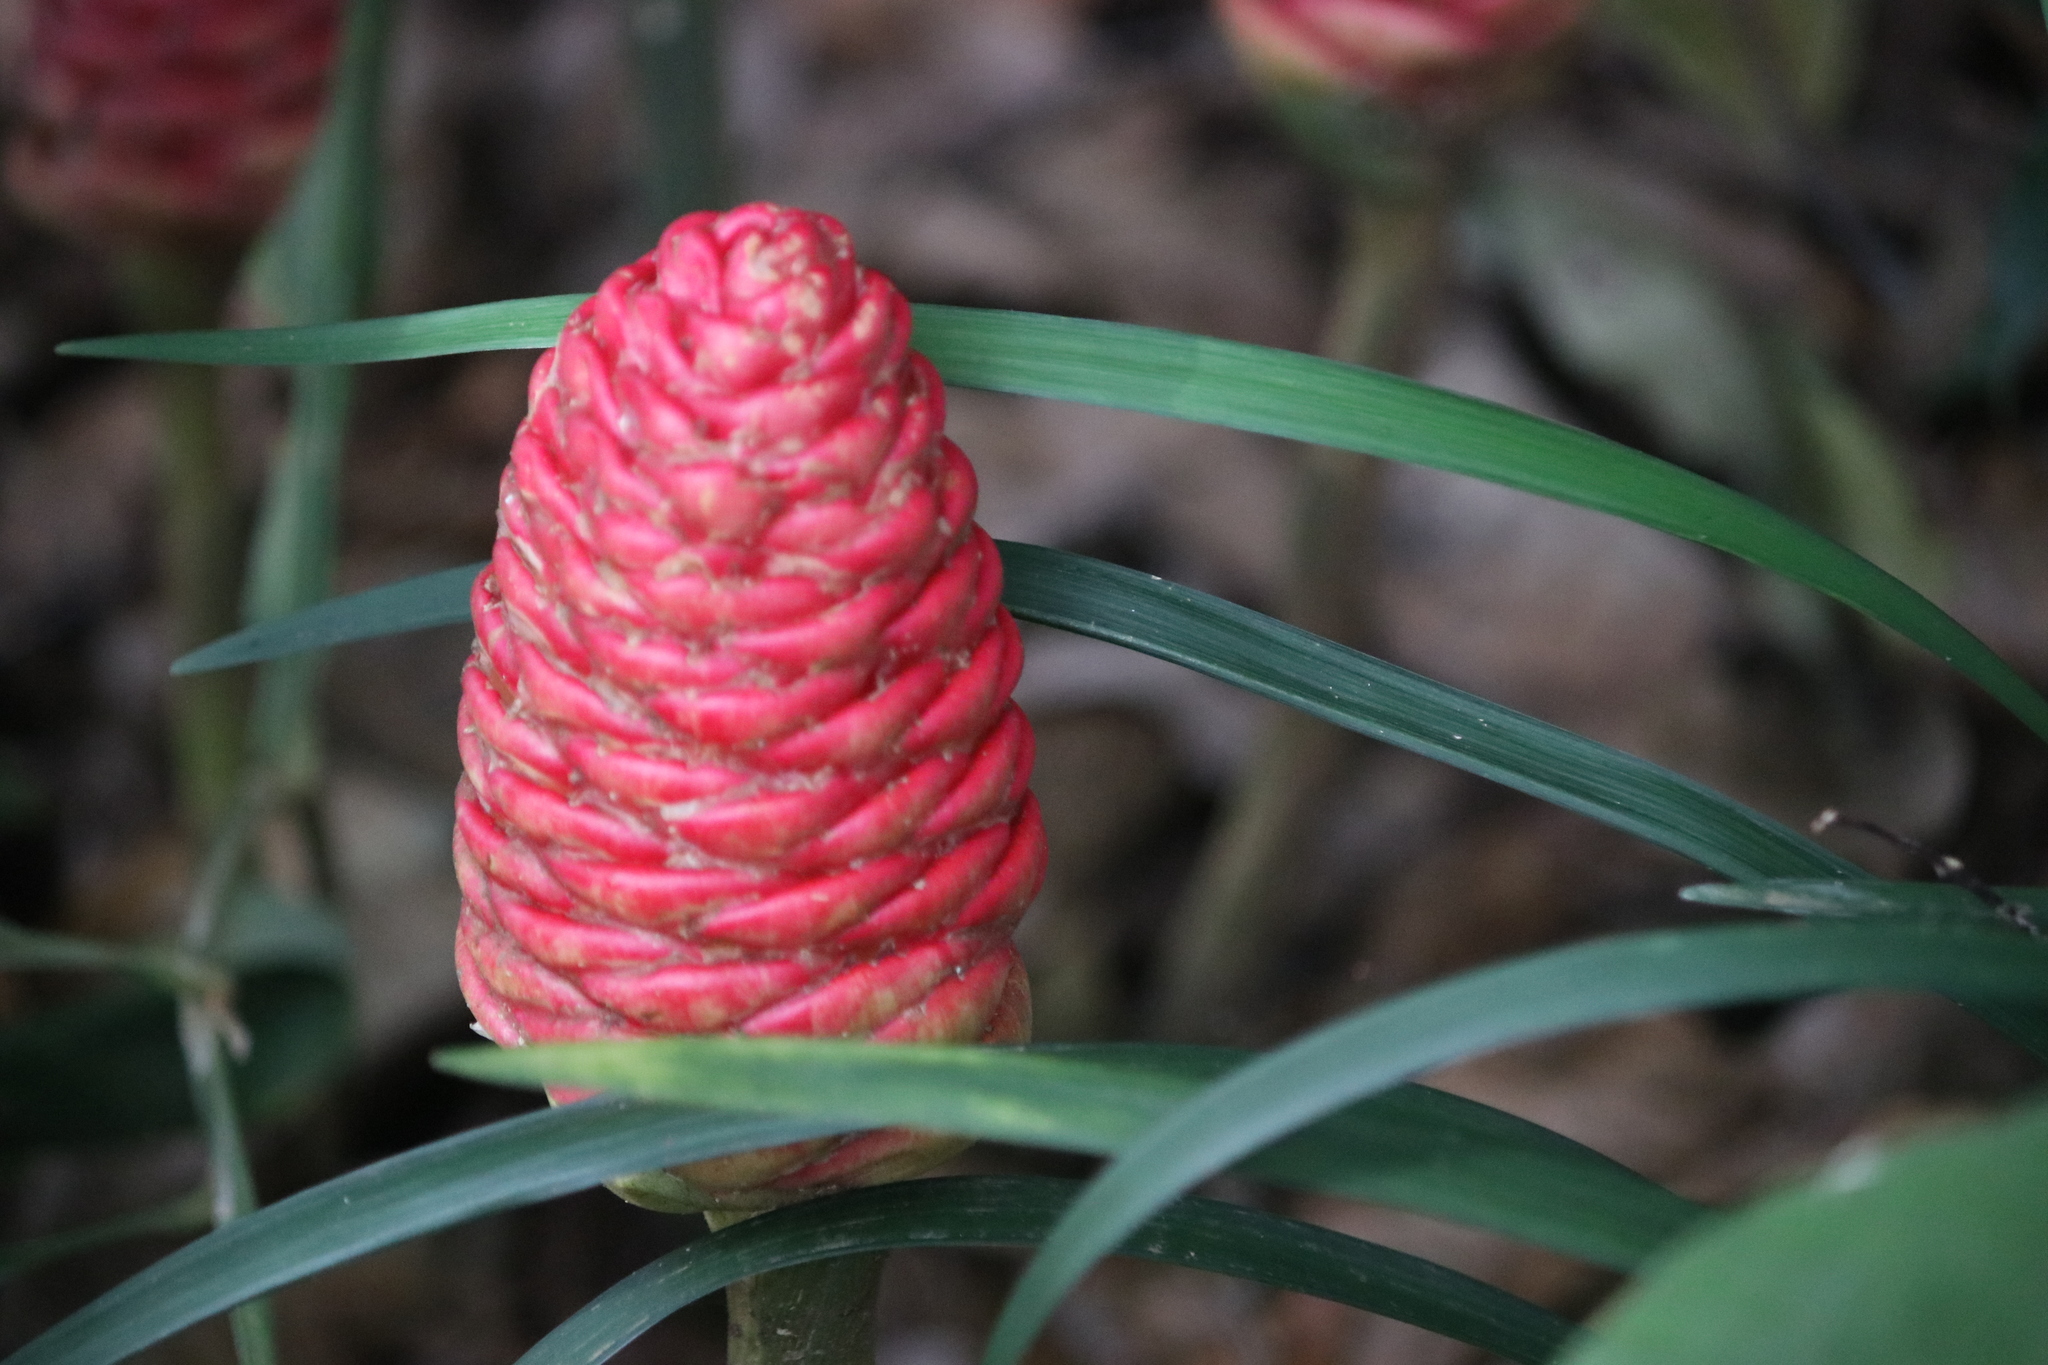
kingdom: Plantae
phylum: Tracheophyta
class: Liliopsida
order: Zingiberales
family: Zingiberaceae
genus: Zingiber
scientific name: Zingiber zerumbet
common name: Bitter ginger
